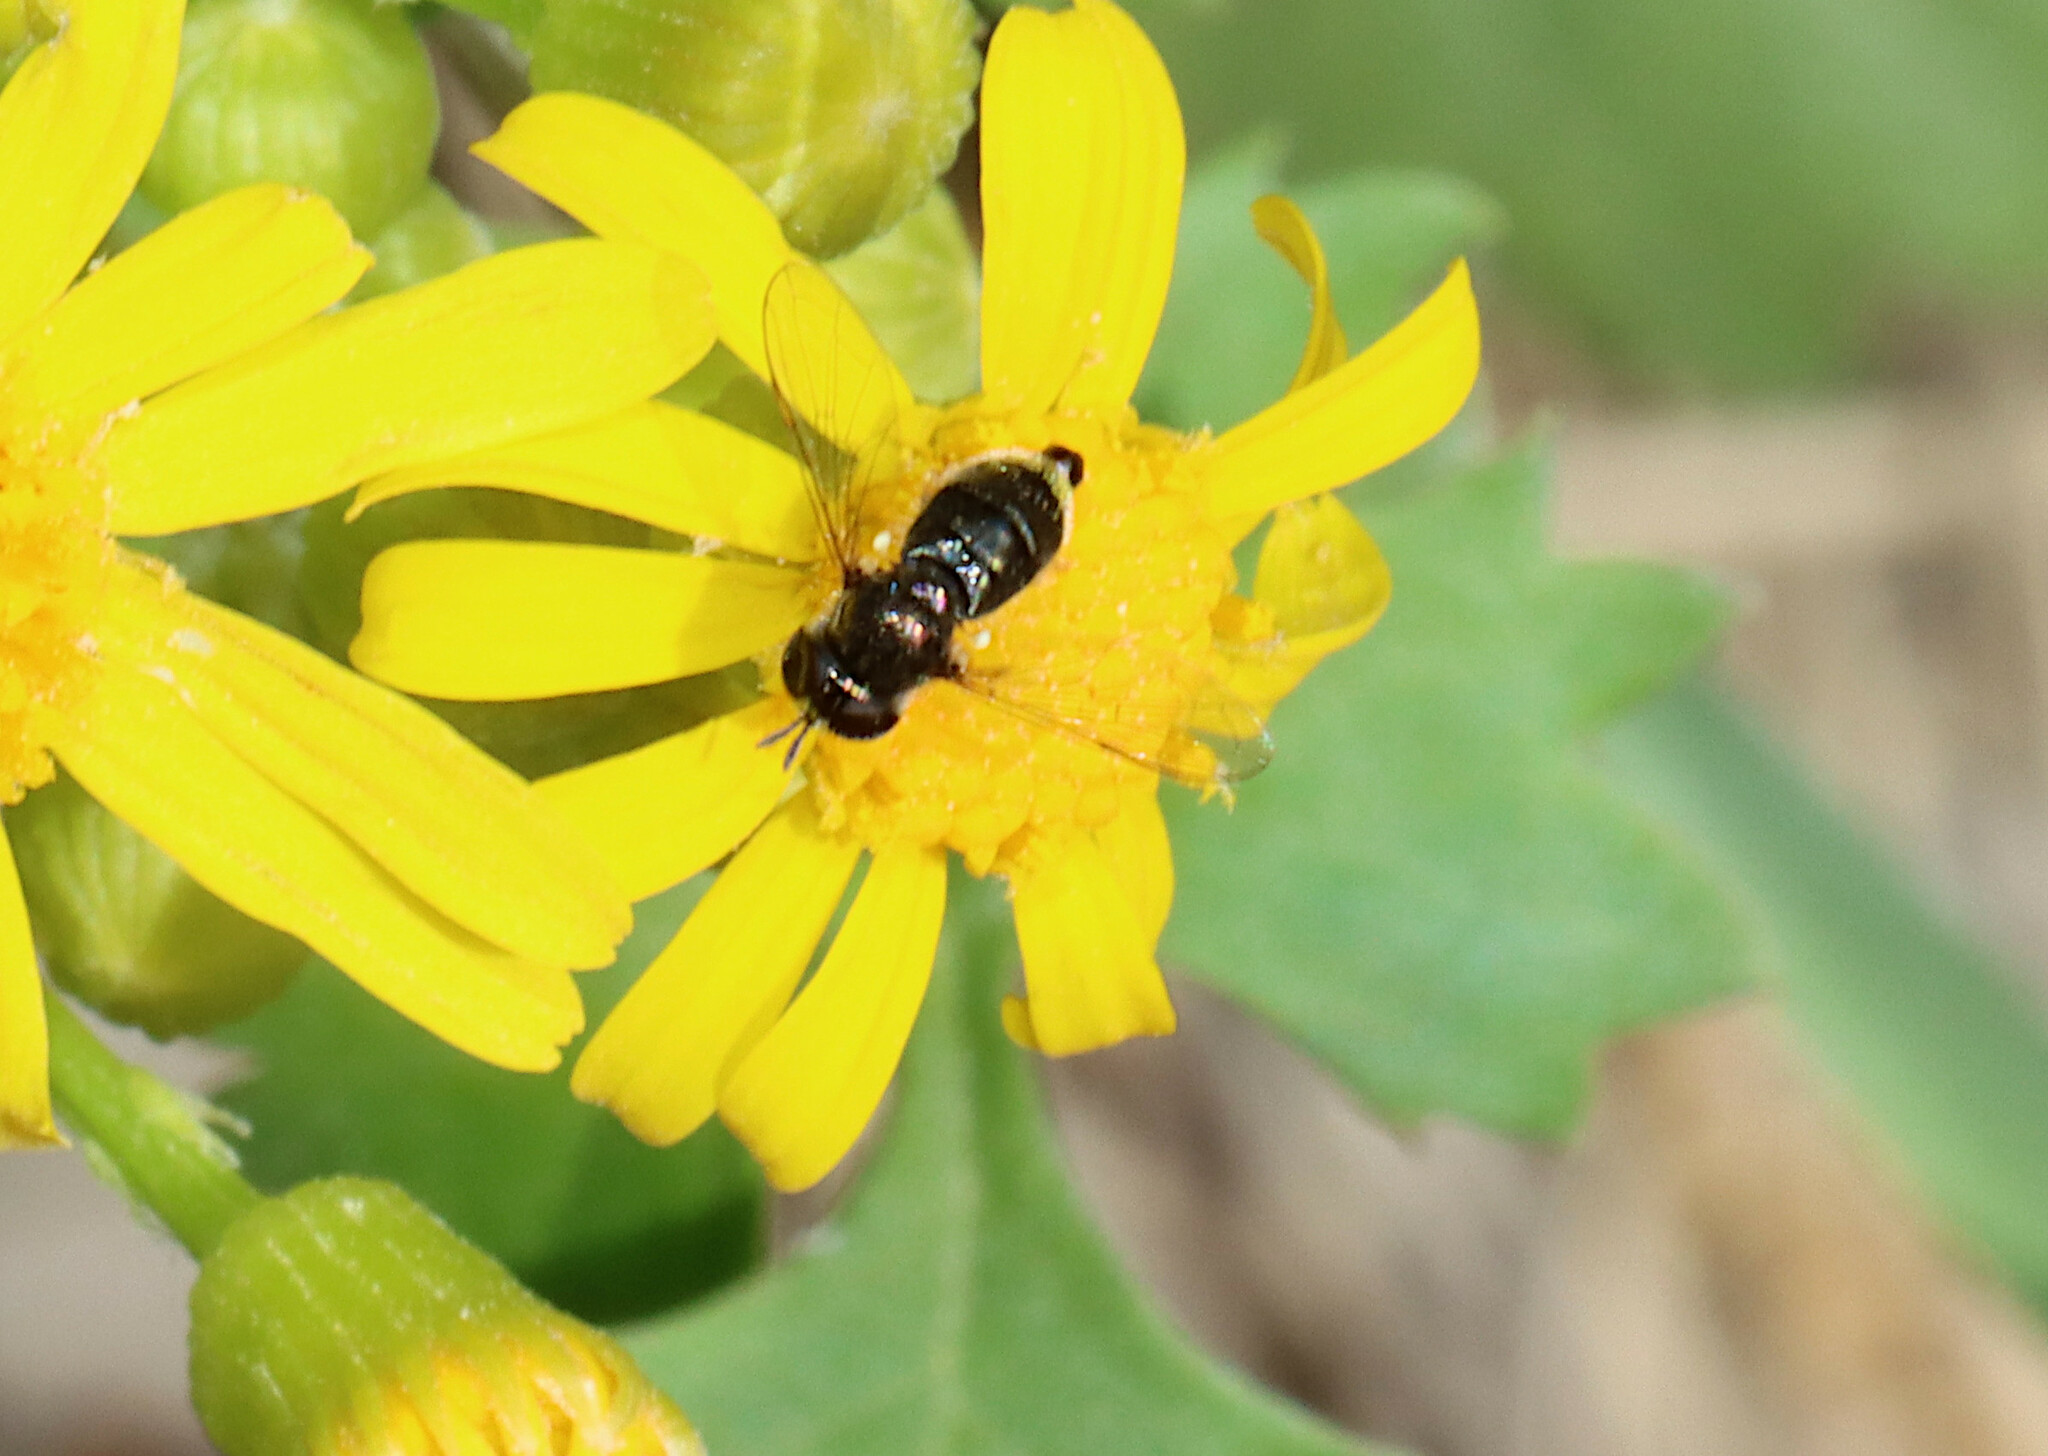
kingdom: Animalia
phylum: Arthropoda
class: Insecta
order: Diptera
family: Syrphidae
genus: Paragus
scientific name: Paragus haemorrhous
